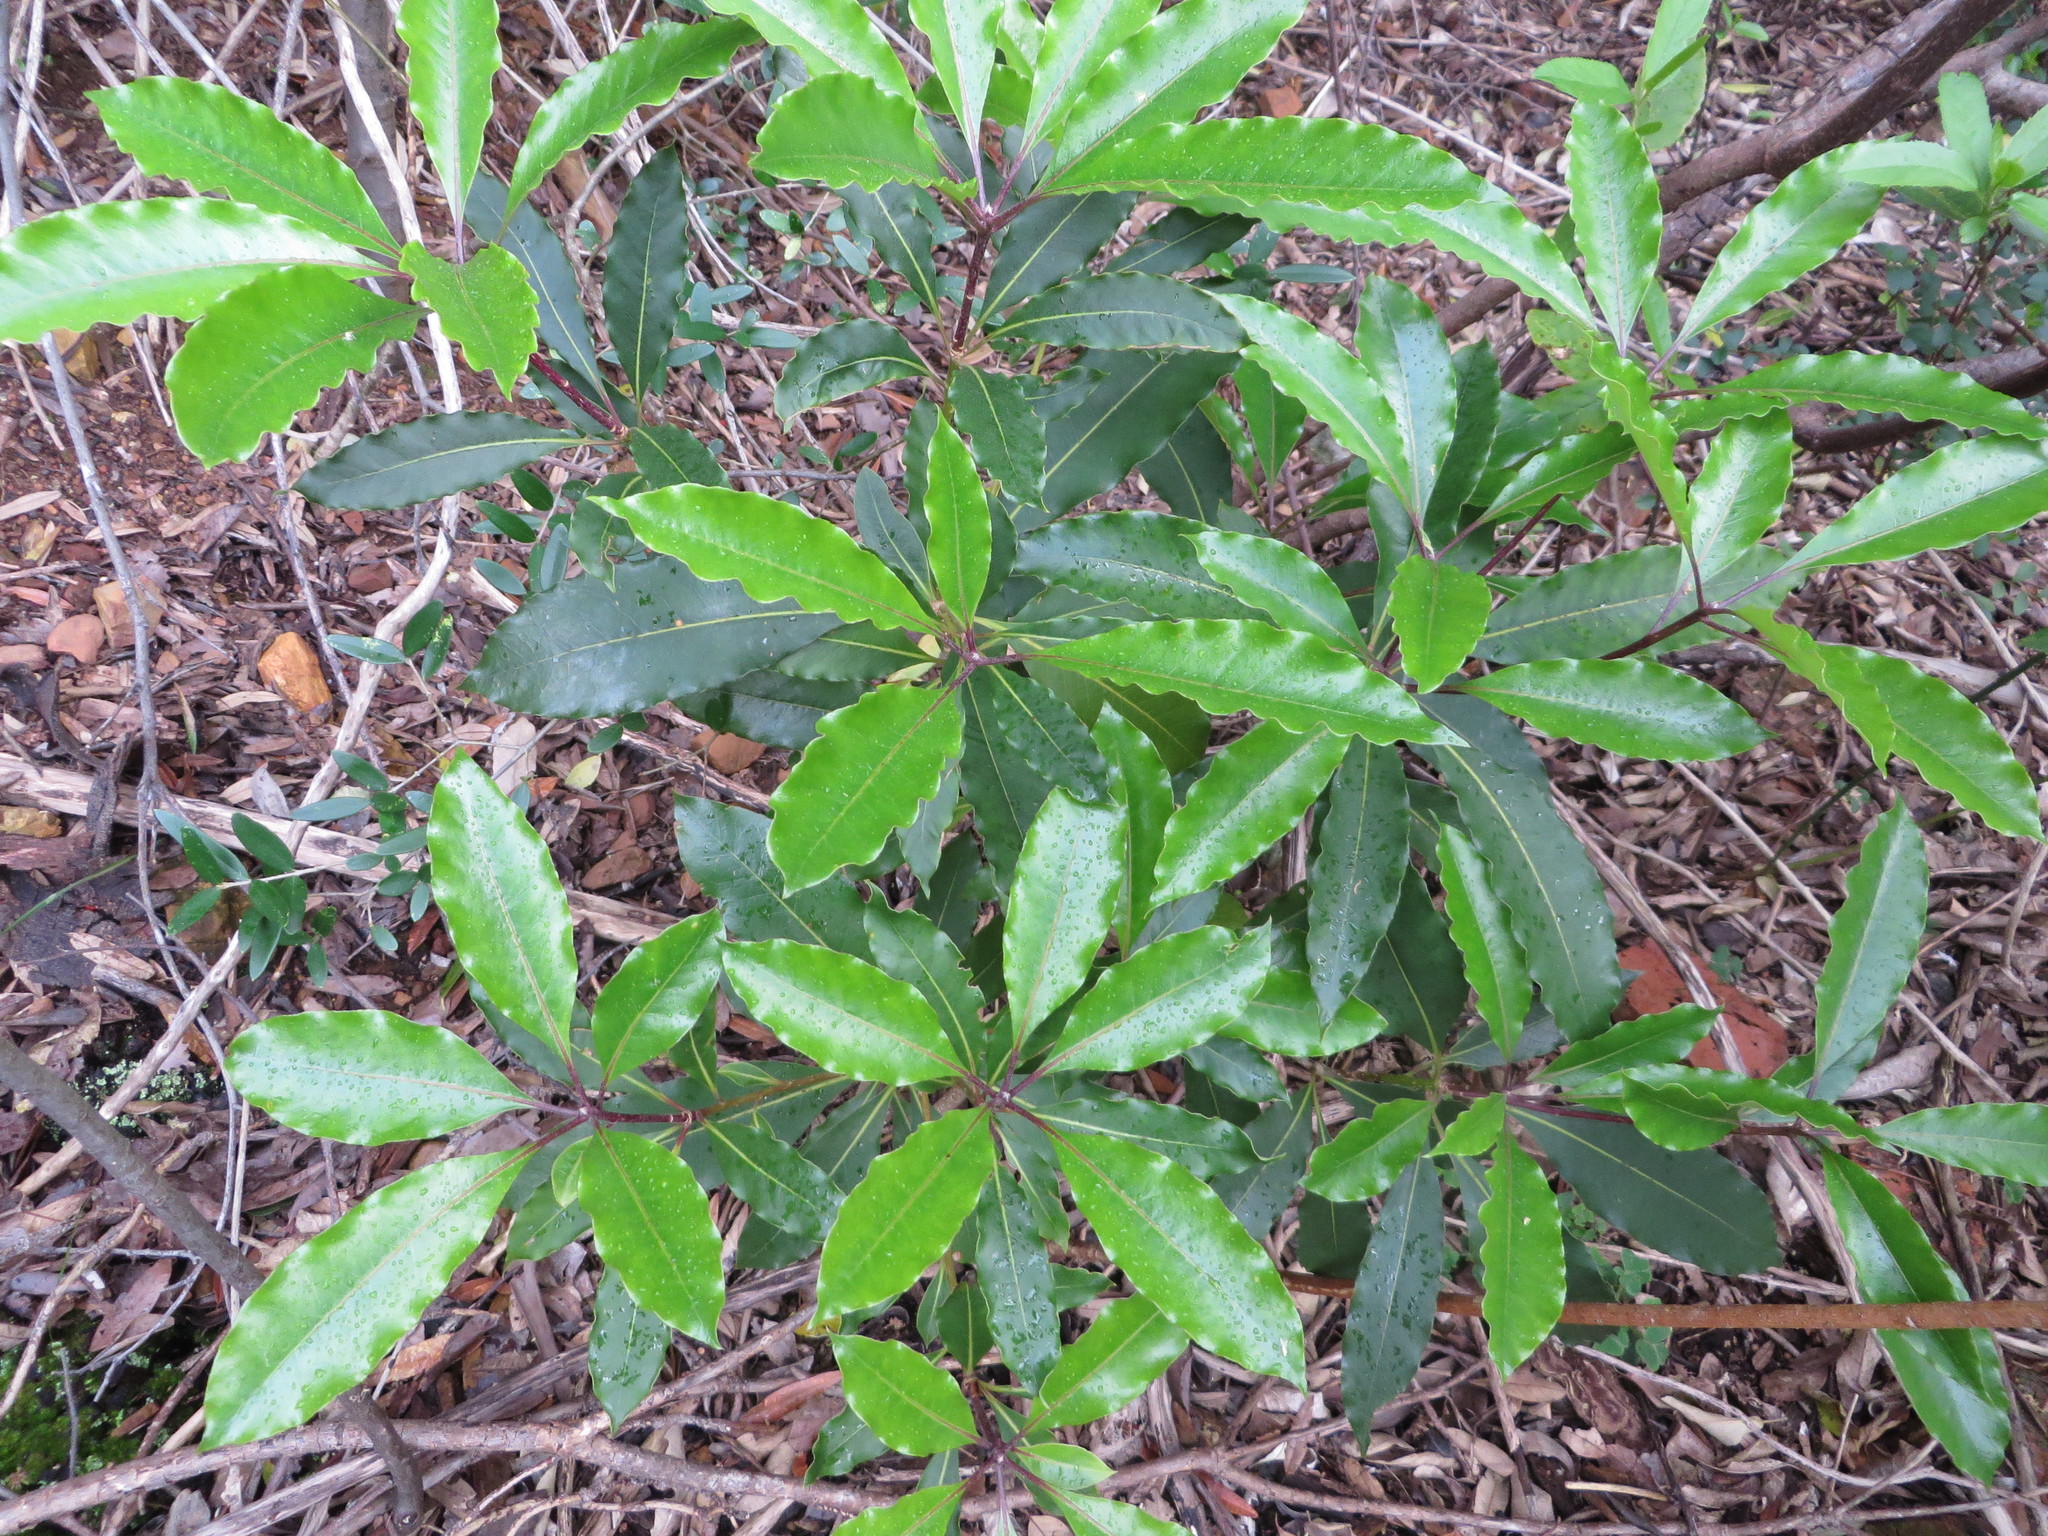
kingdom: Plantae
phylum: Tracheophyta
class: Magnoliopsida
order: Apiales
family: Pittosporaceae
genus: Pittosporum
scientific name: Pittosporum undulatum
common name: Australian cheesewood
